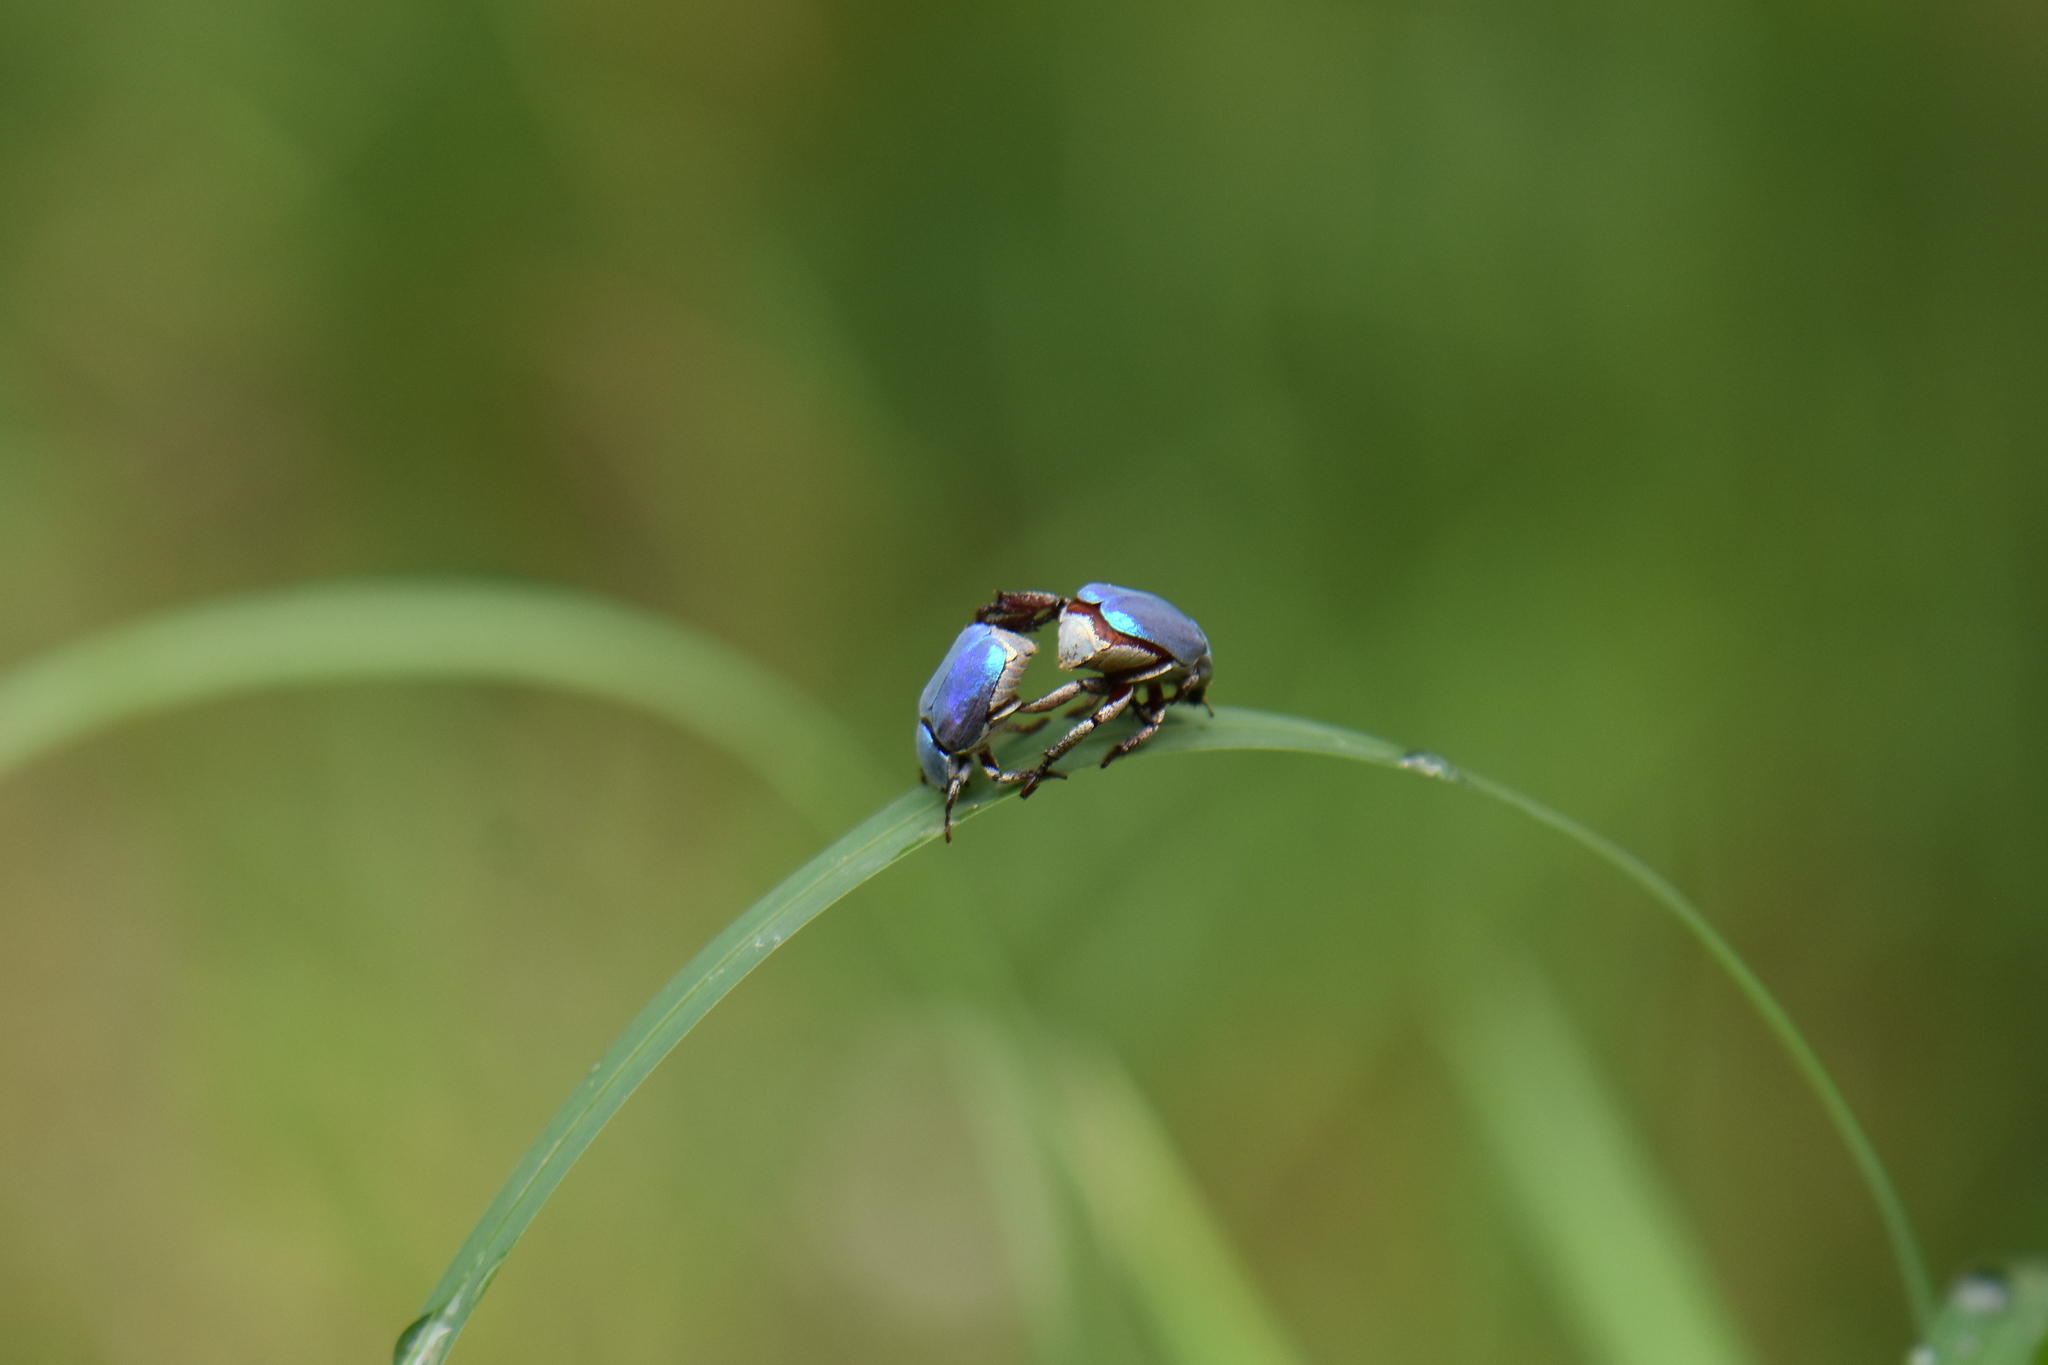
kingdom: Animalia
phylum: Arthropoda
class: Insecta
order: Coleoptera
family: Scarabaeidae
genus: Hoplia
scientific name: Hoplia coerulea
